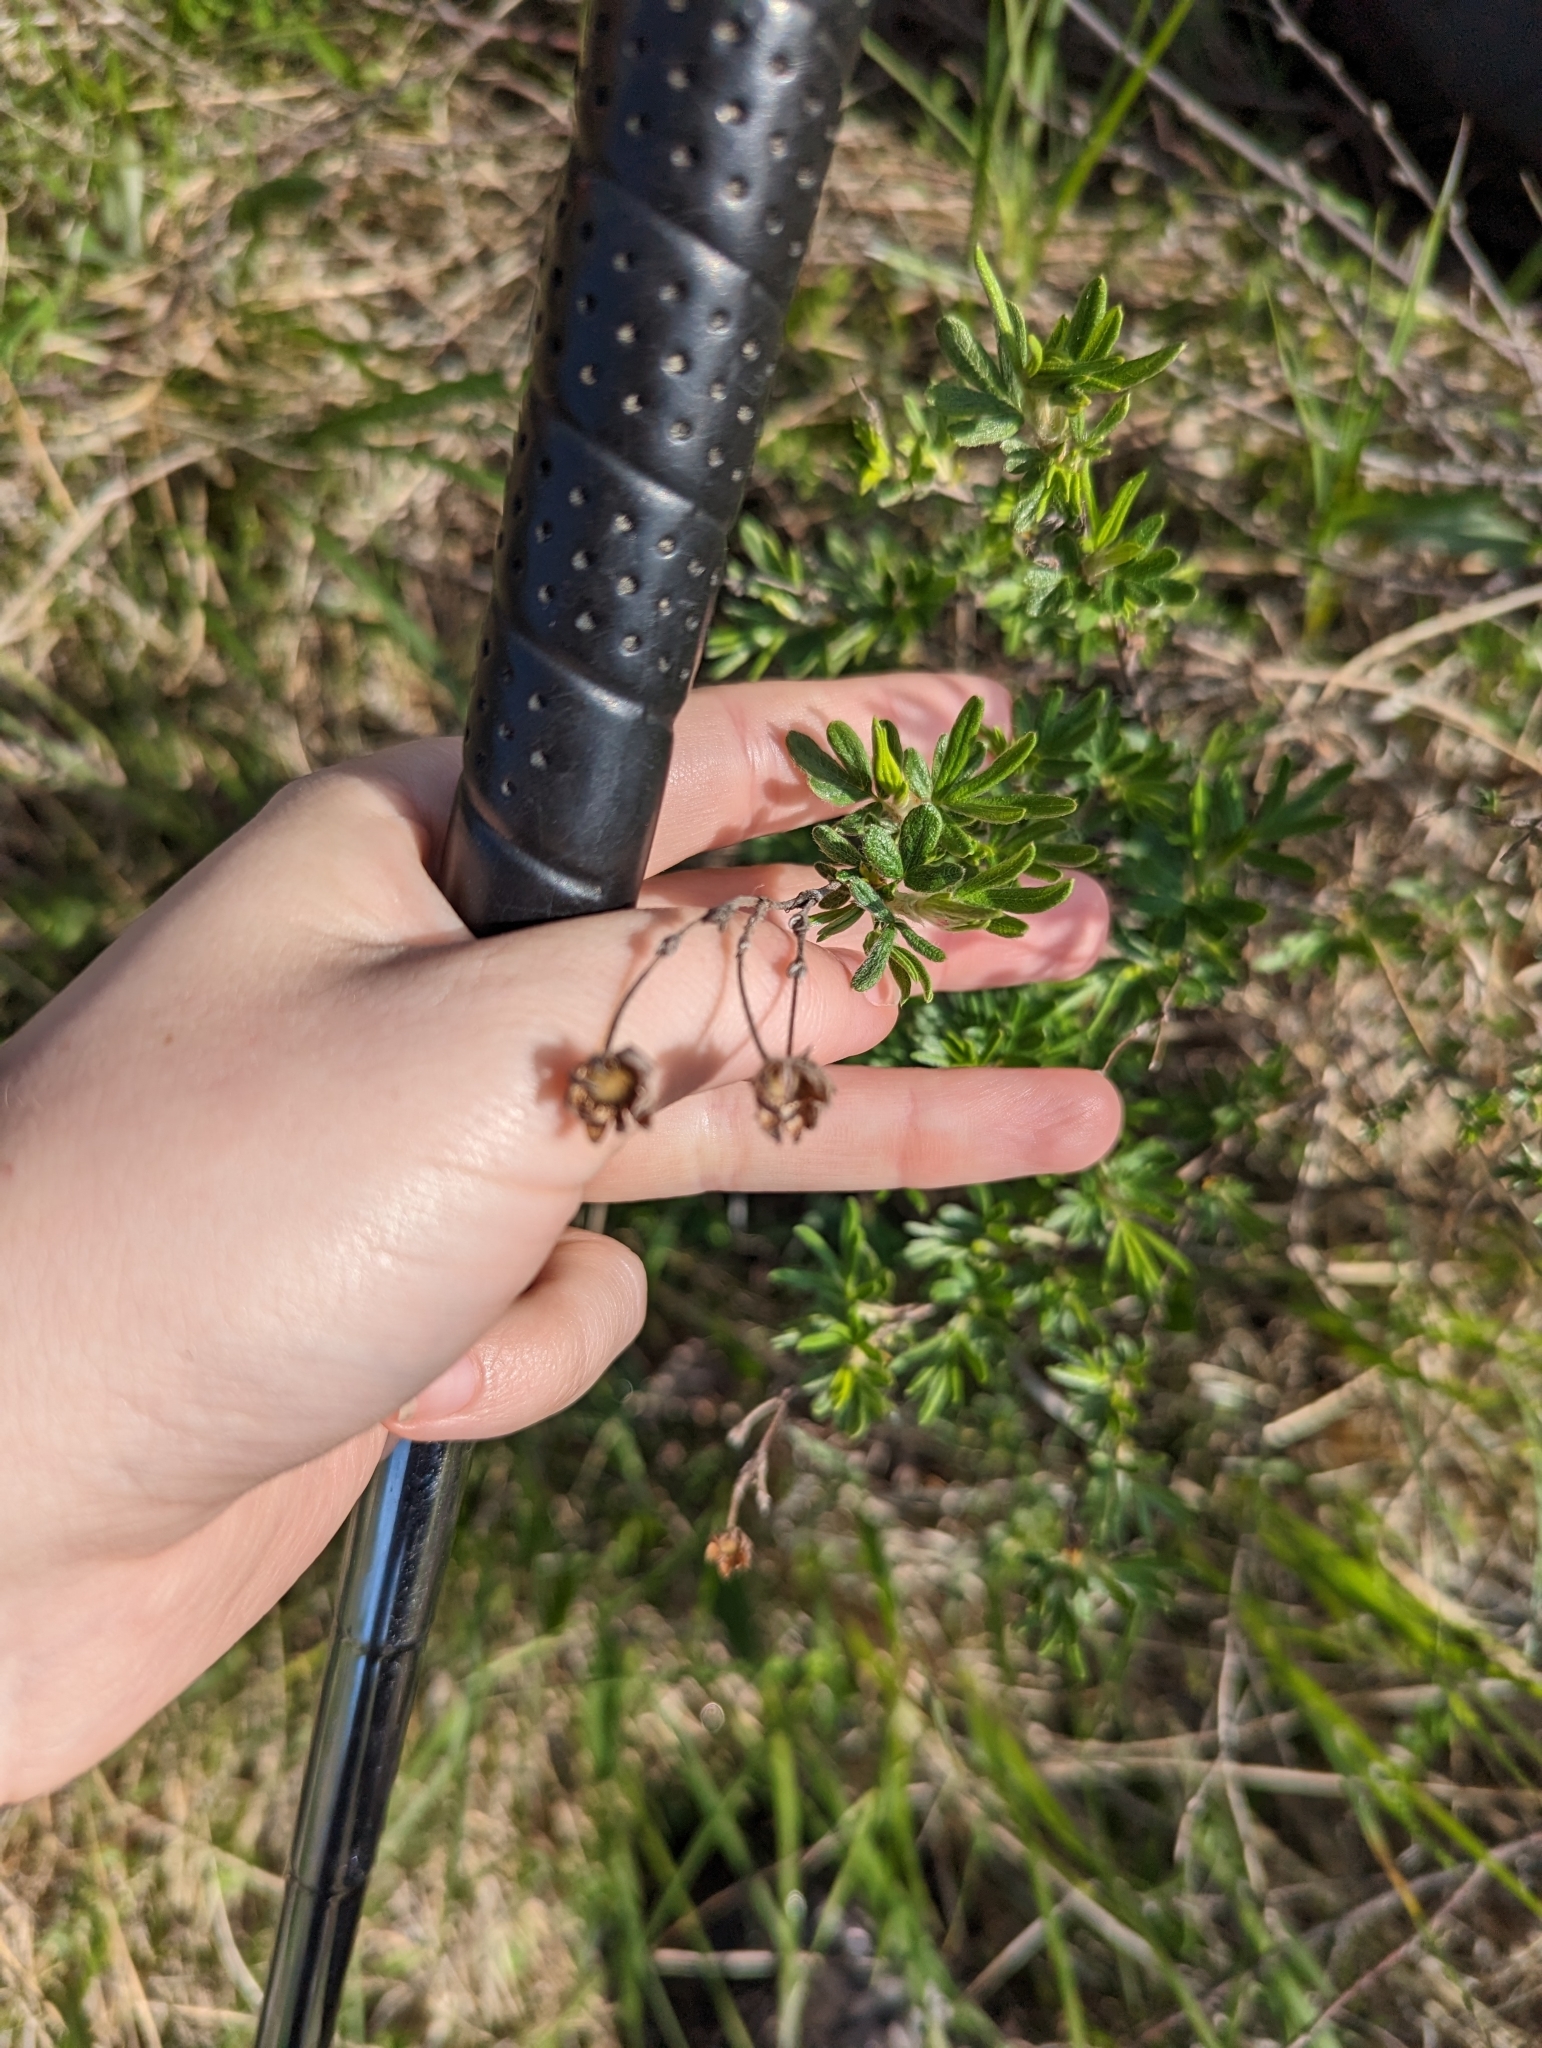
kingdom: Plantae
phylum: Tracheophyta
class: Magnoliopsida
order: Rosales
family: Rosaceae
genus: Dasiphora
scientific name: Dasiphora fruticosa
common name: Shrubby cinquefoil
